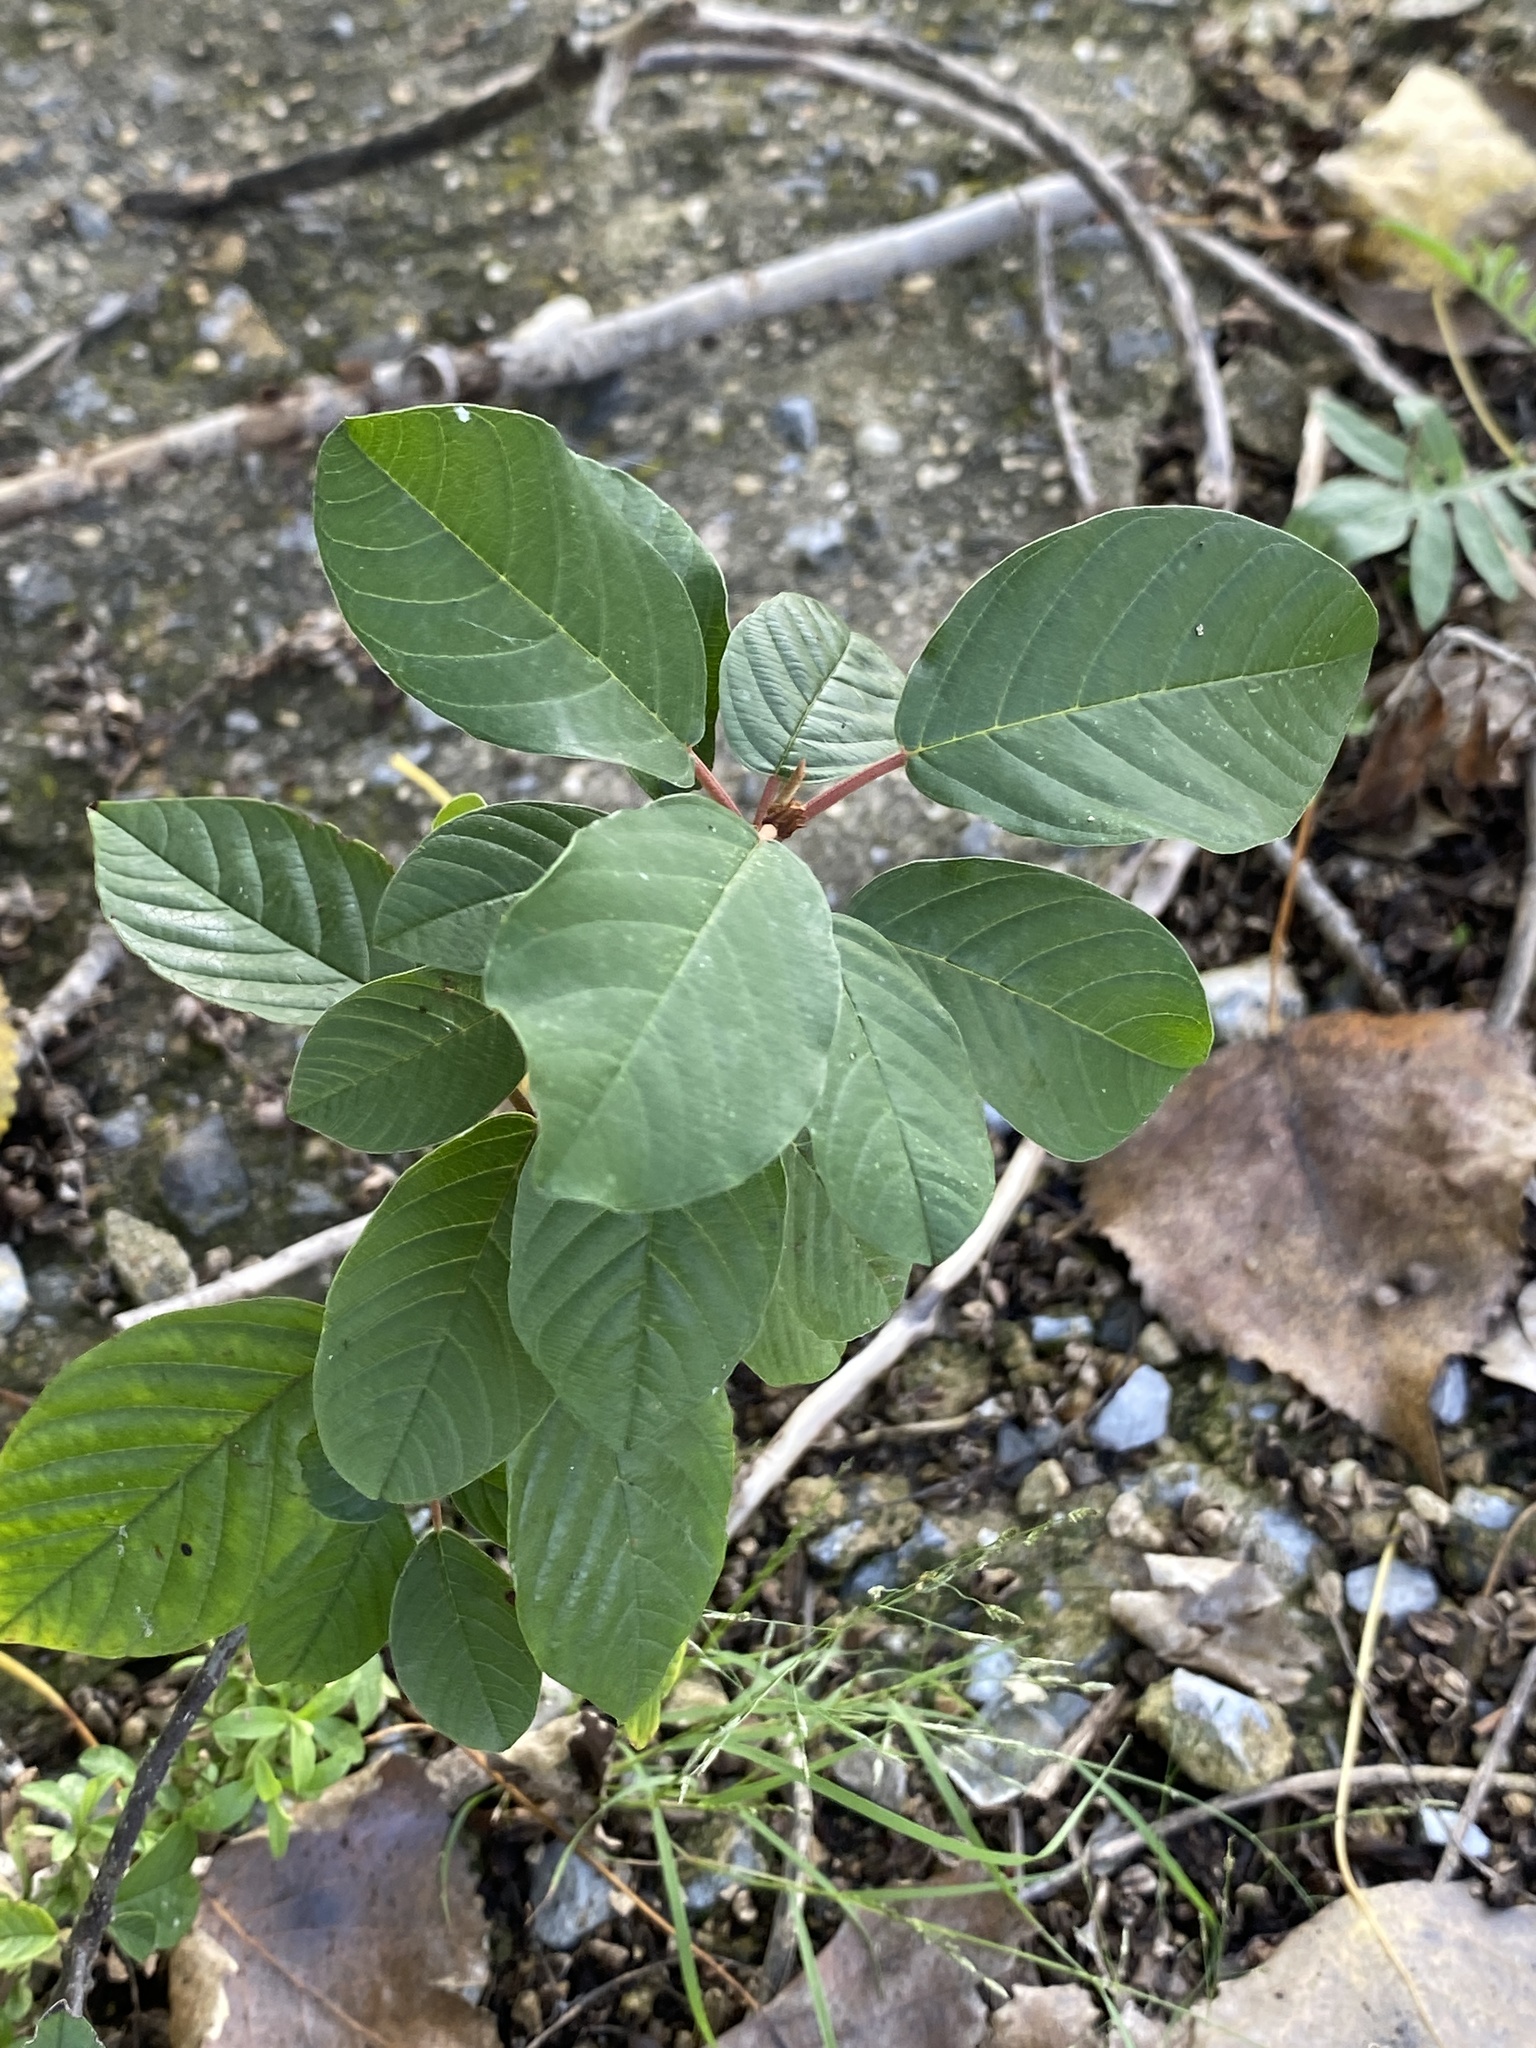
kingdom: Plantae
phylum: Tracheophyta
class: Magnoliopsida
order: Rosales
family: Rhamnaceae
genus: Frangula
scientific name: Frangula alnus
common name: Alder buckthorn
